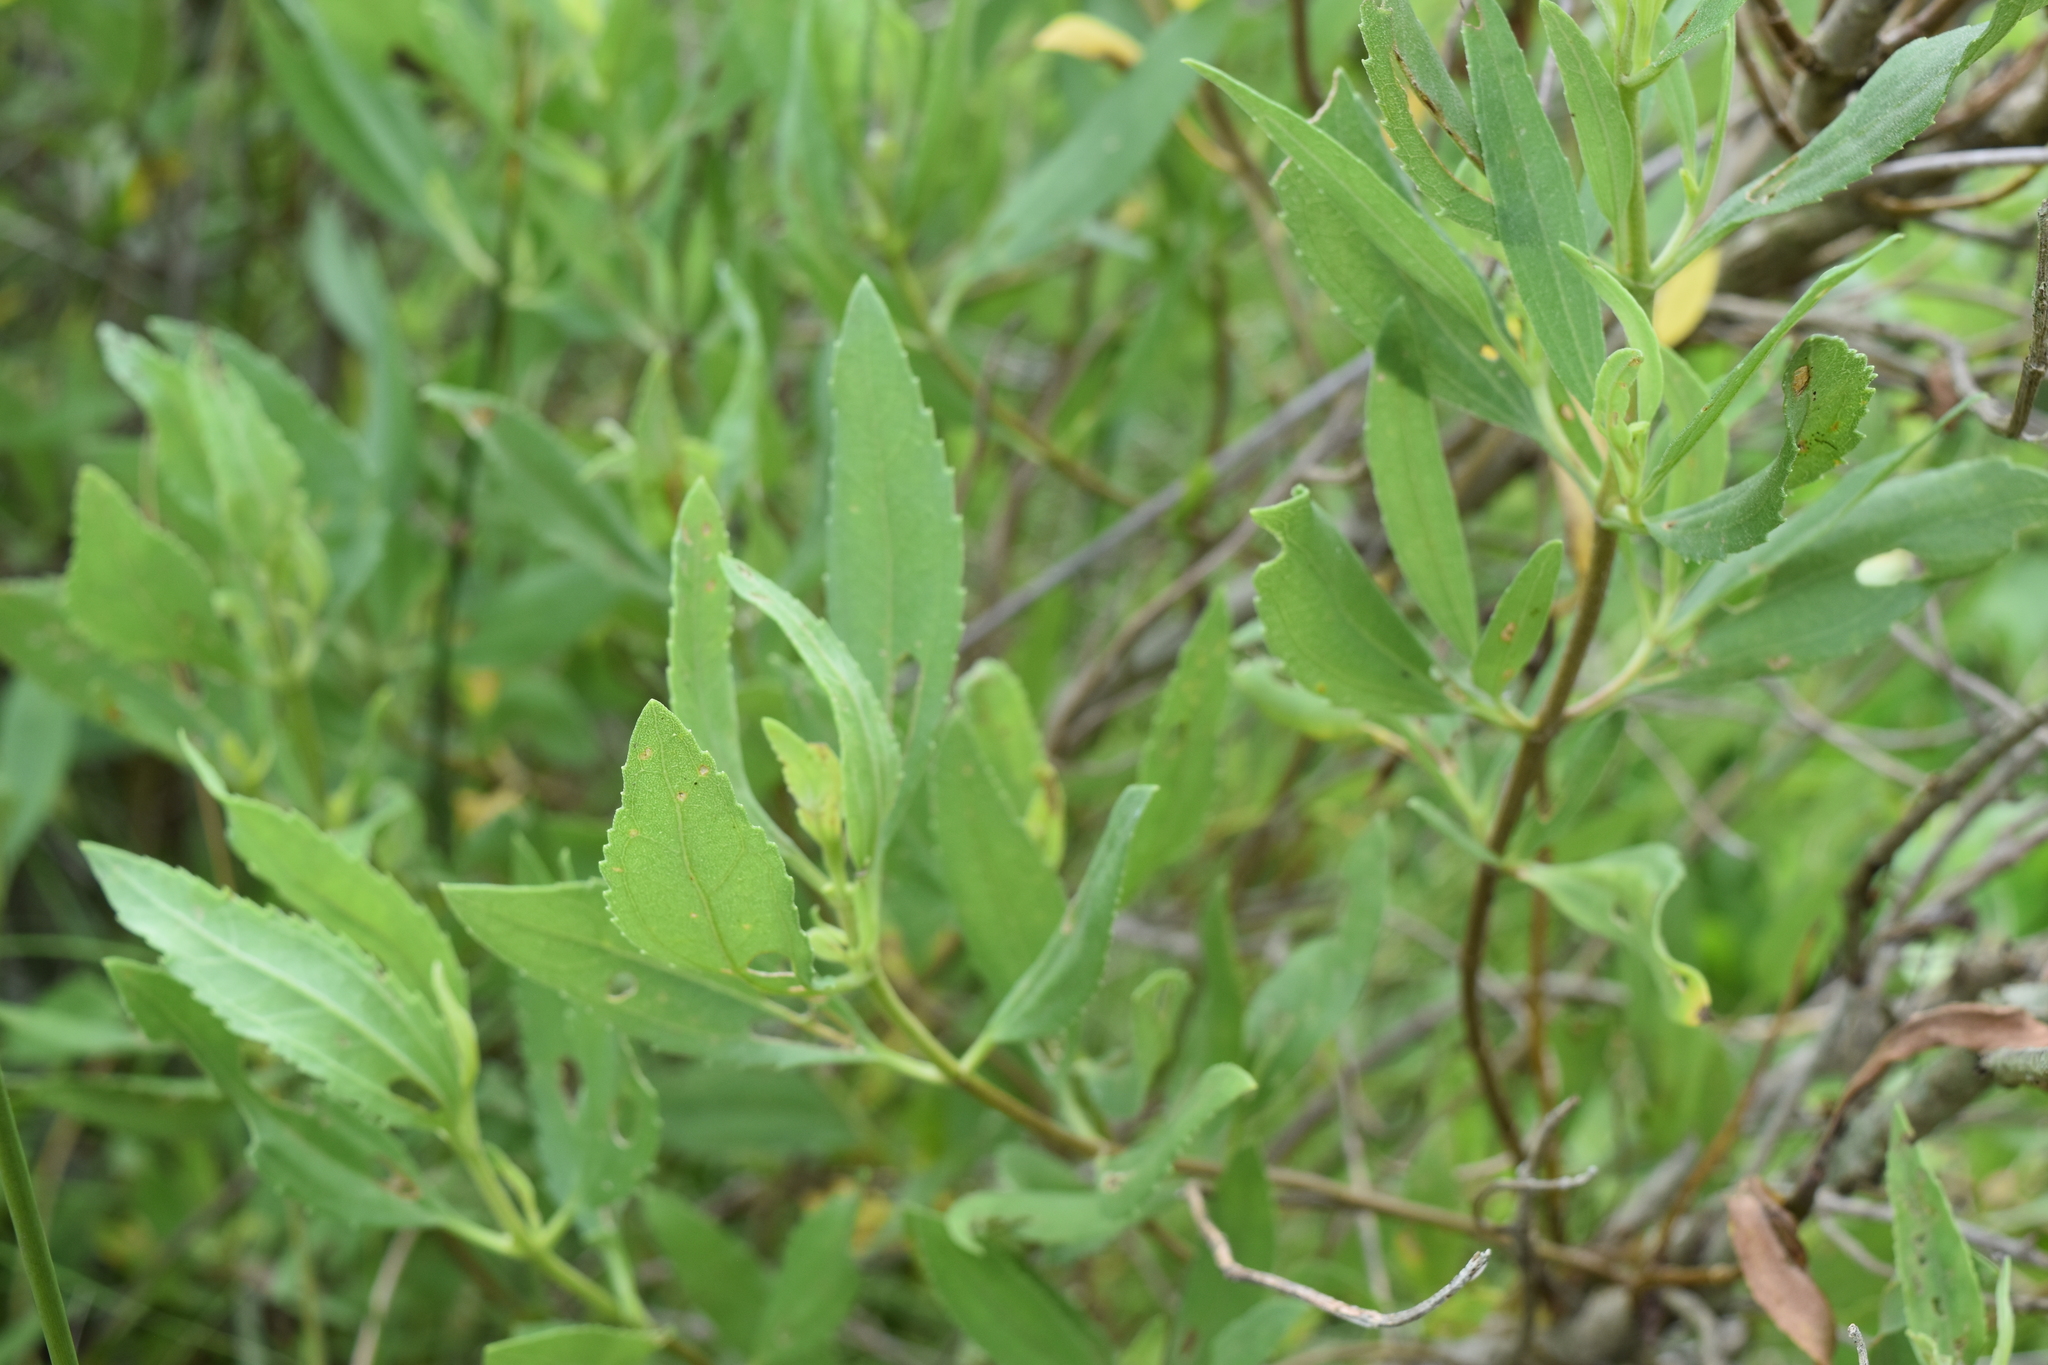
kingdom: Plantae
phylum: Tracheophyta
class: Magnoliopsida
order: Asterales
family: Asteraceae
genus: Iva
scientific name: Iva frutescens
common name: Big-leaved marsh-elder
